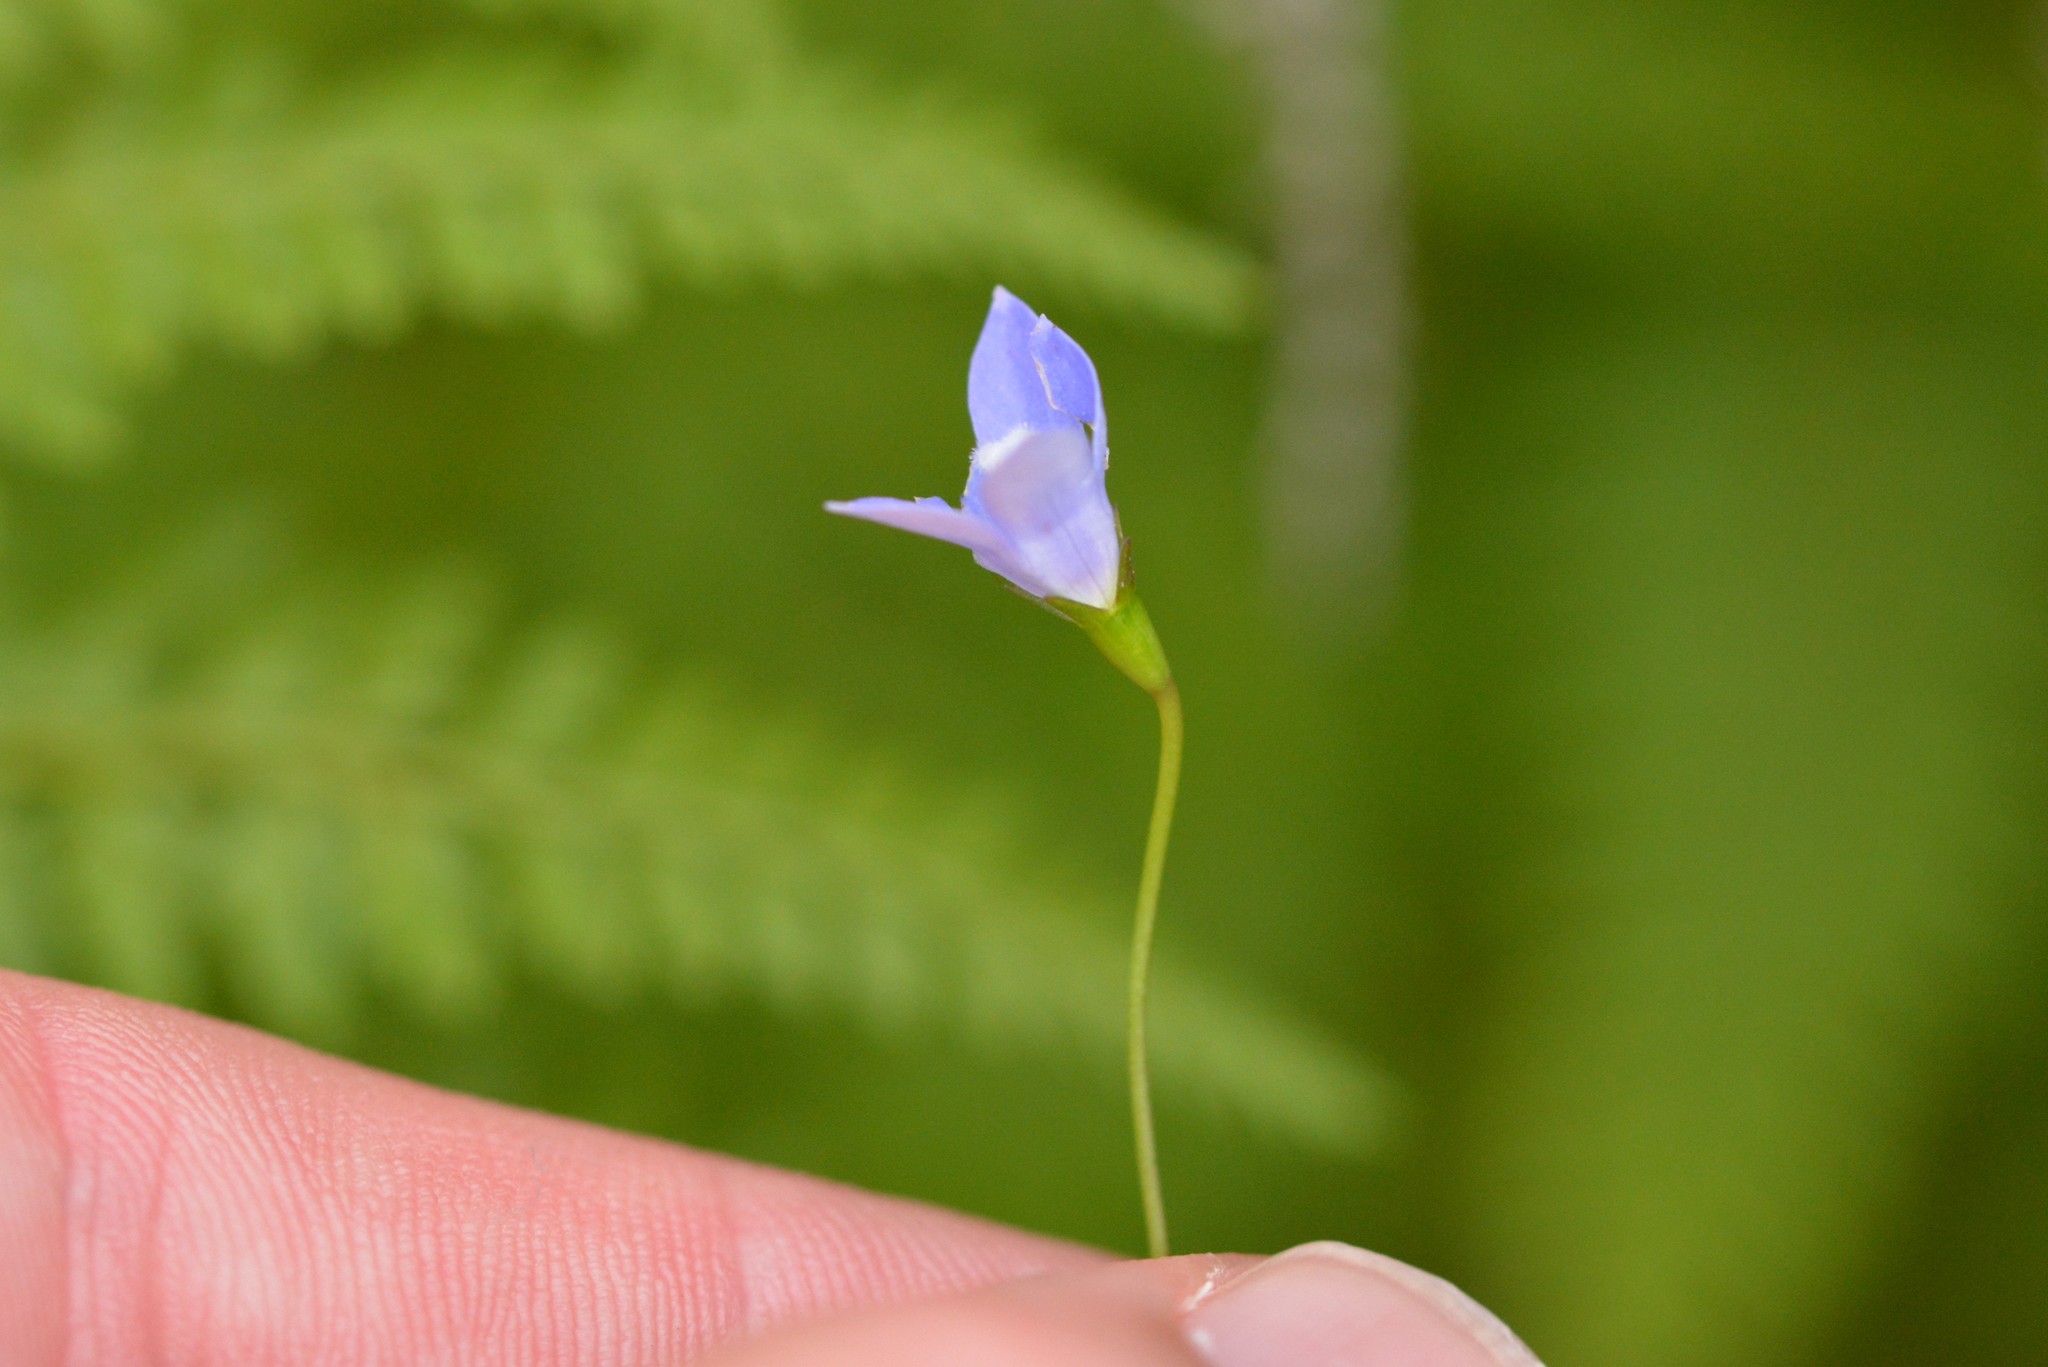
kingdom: Plantae
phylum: Tracheophyta
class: Magnoliopsida
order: Asterales
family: Campanulaceae
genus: Wahlenbergia
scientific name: Wahlenbergia violacea
